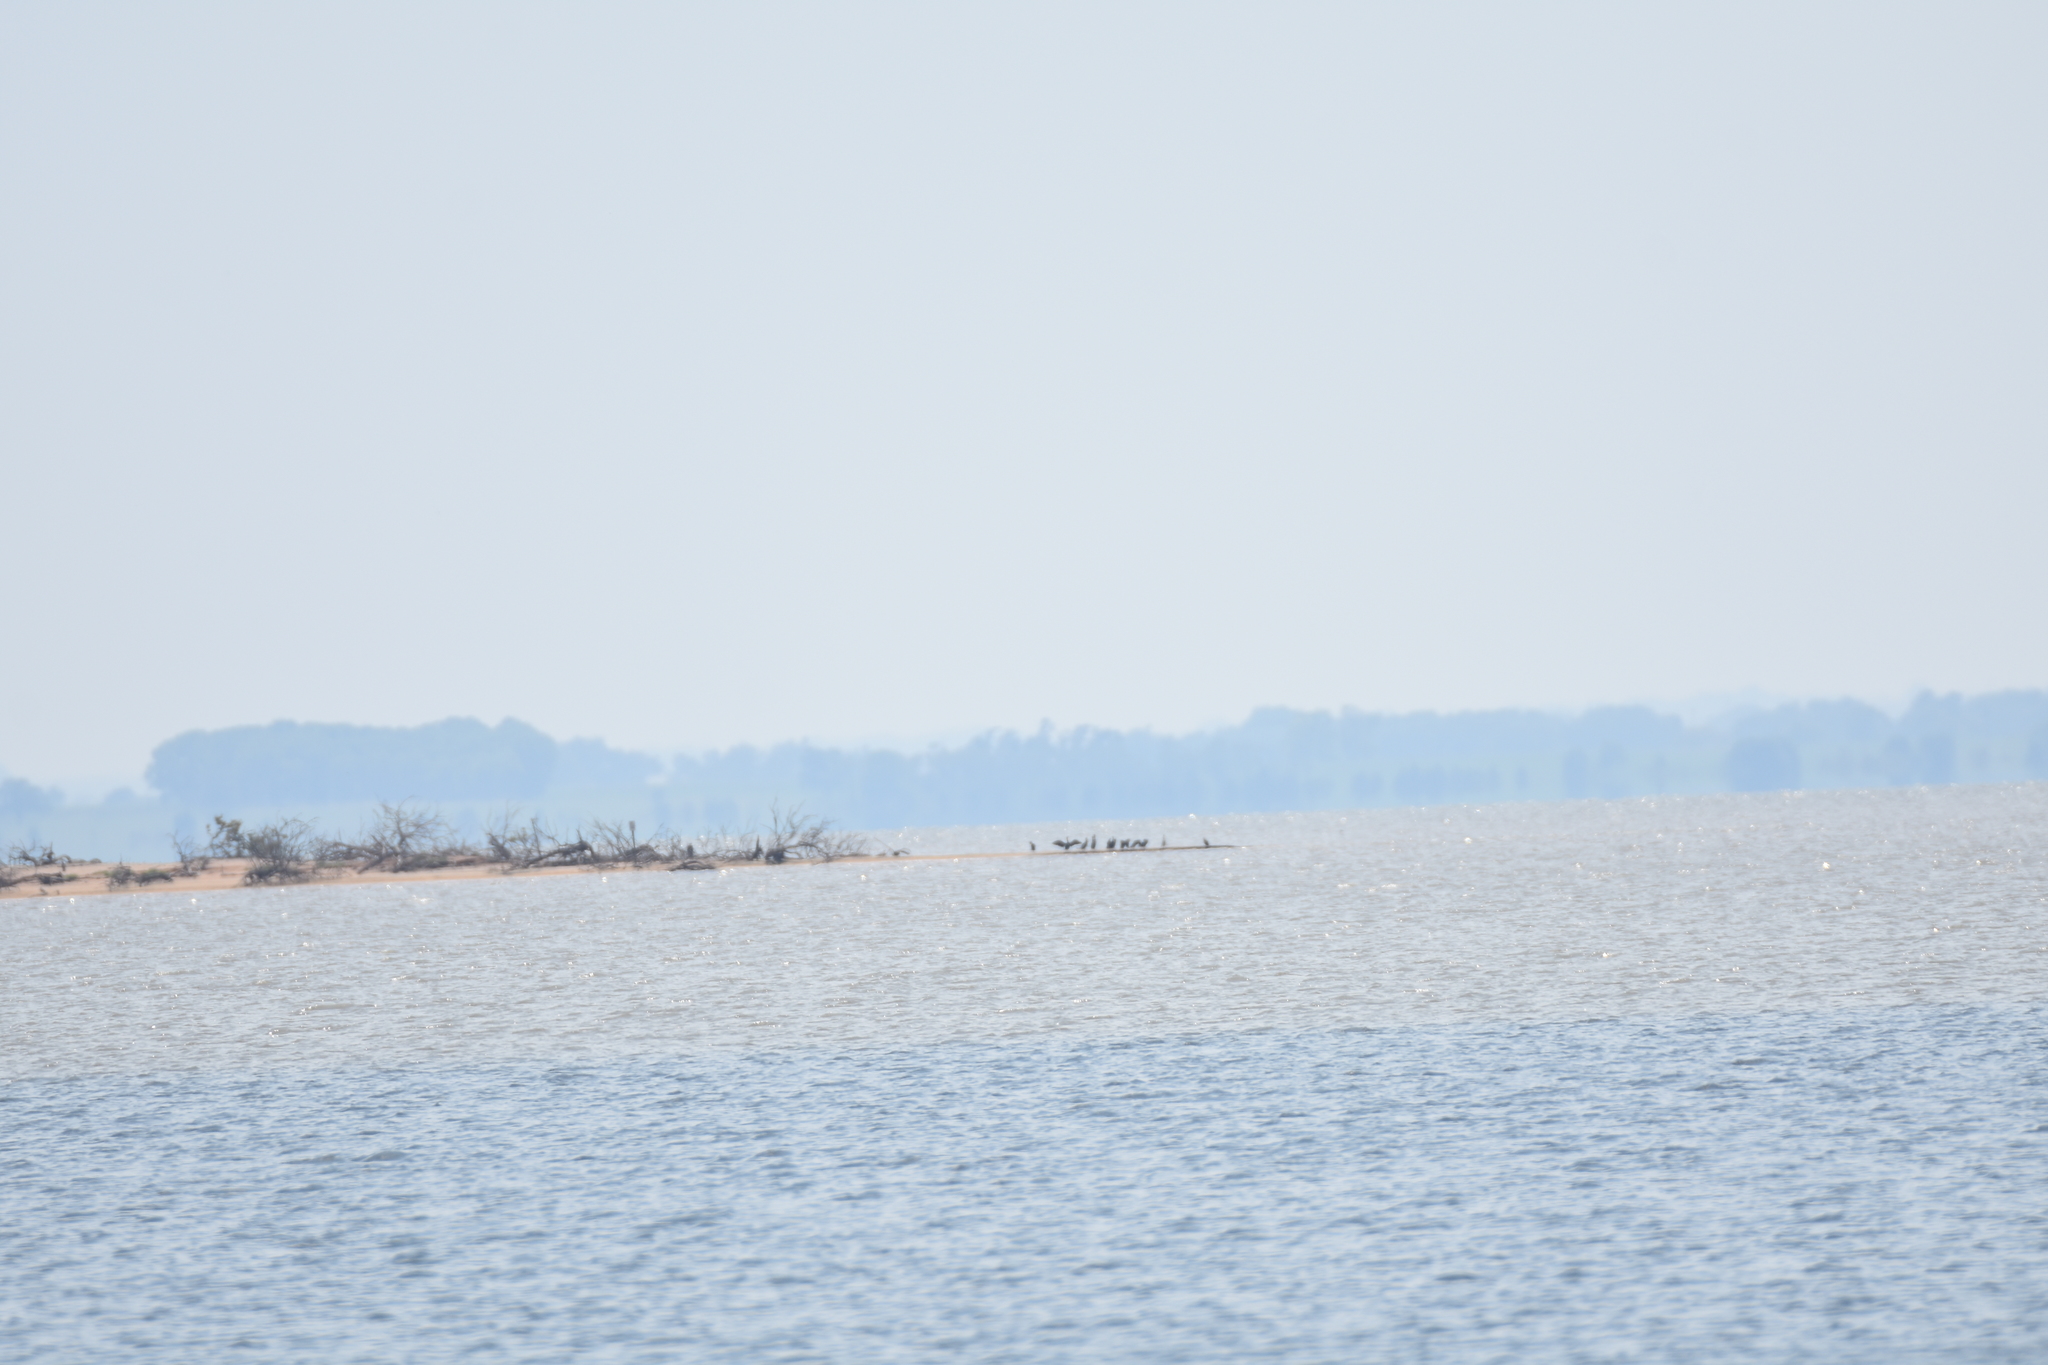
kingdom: Animalia
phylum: Chordata
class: Aves
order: Suliformes
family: Phalacrocoracidae
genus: Phalacrocorax
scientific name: Phalacrocorax auritus
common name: Double-crested cormorant
